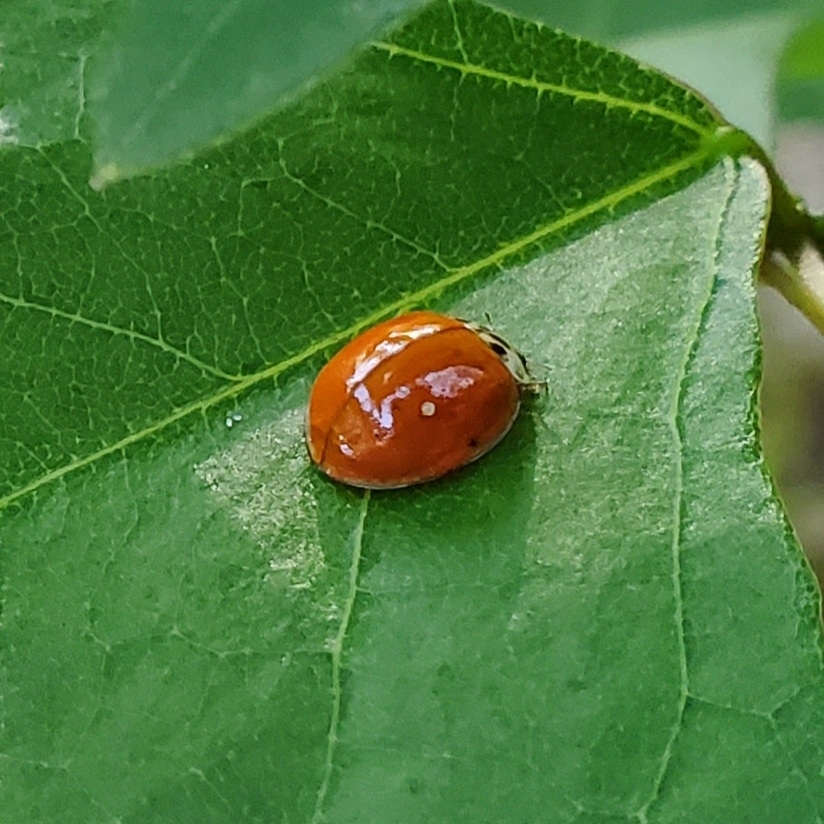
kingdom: Animalia
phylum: Arthropoda
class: Insecta
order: Coleoptera
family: Coccinellidae
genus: Harmonia
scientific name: Harmonia axyridis
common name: Harlequin ladybird
